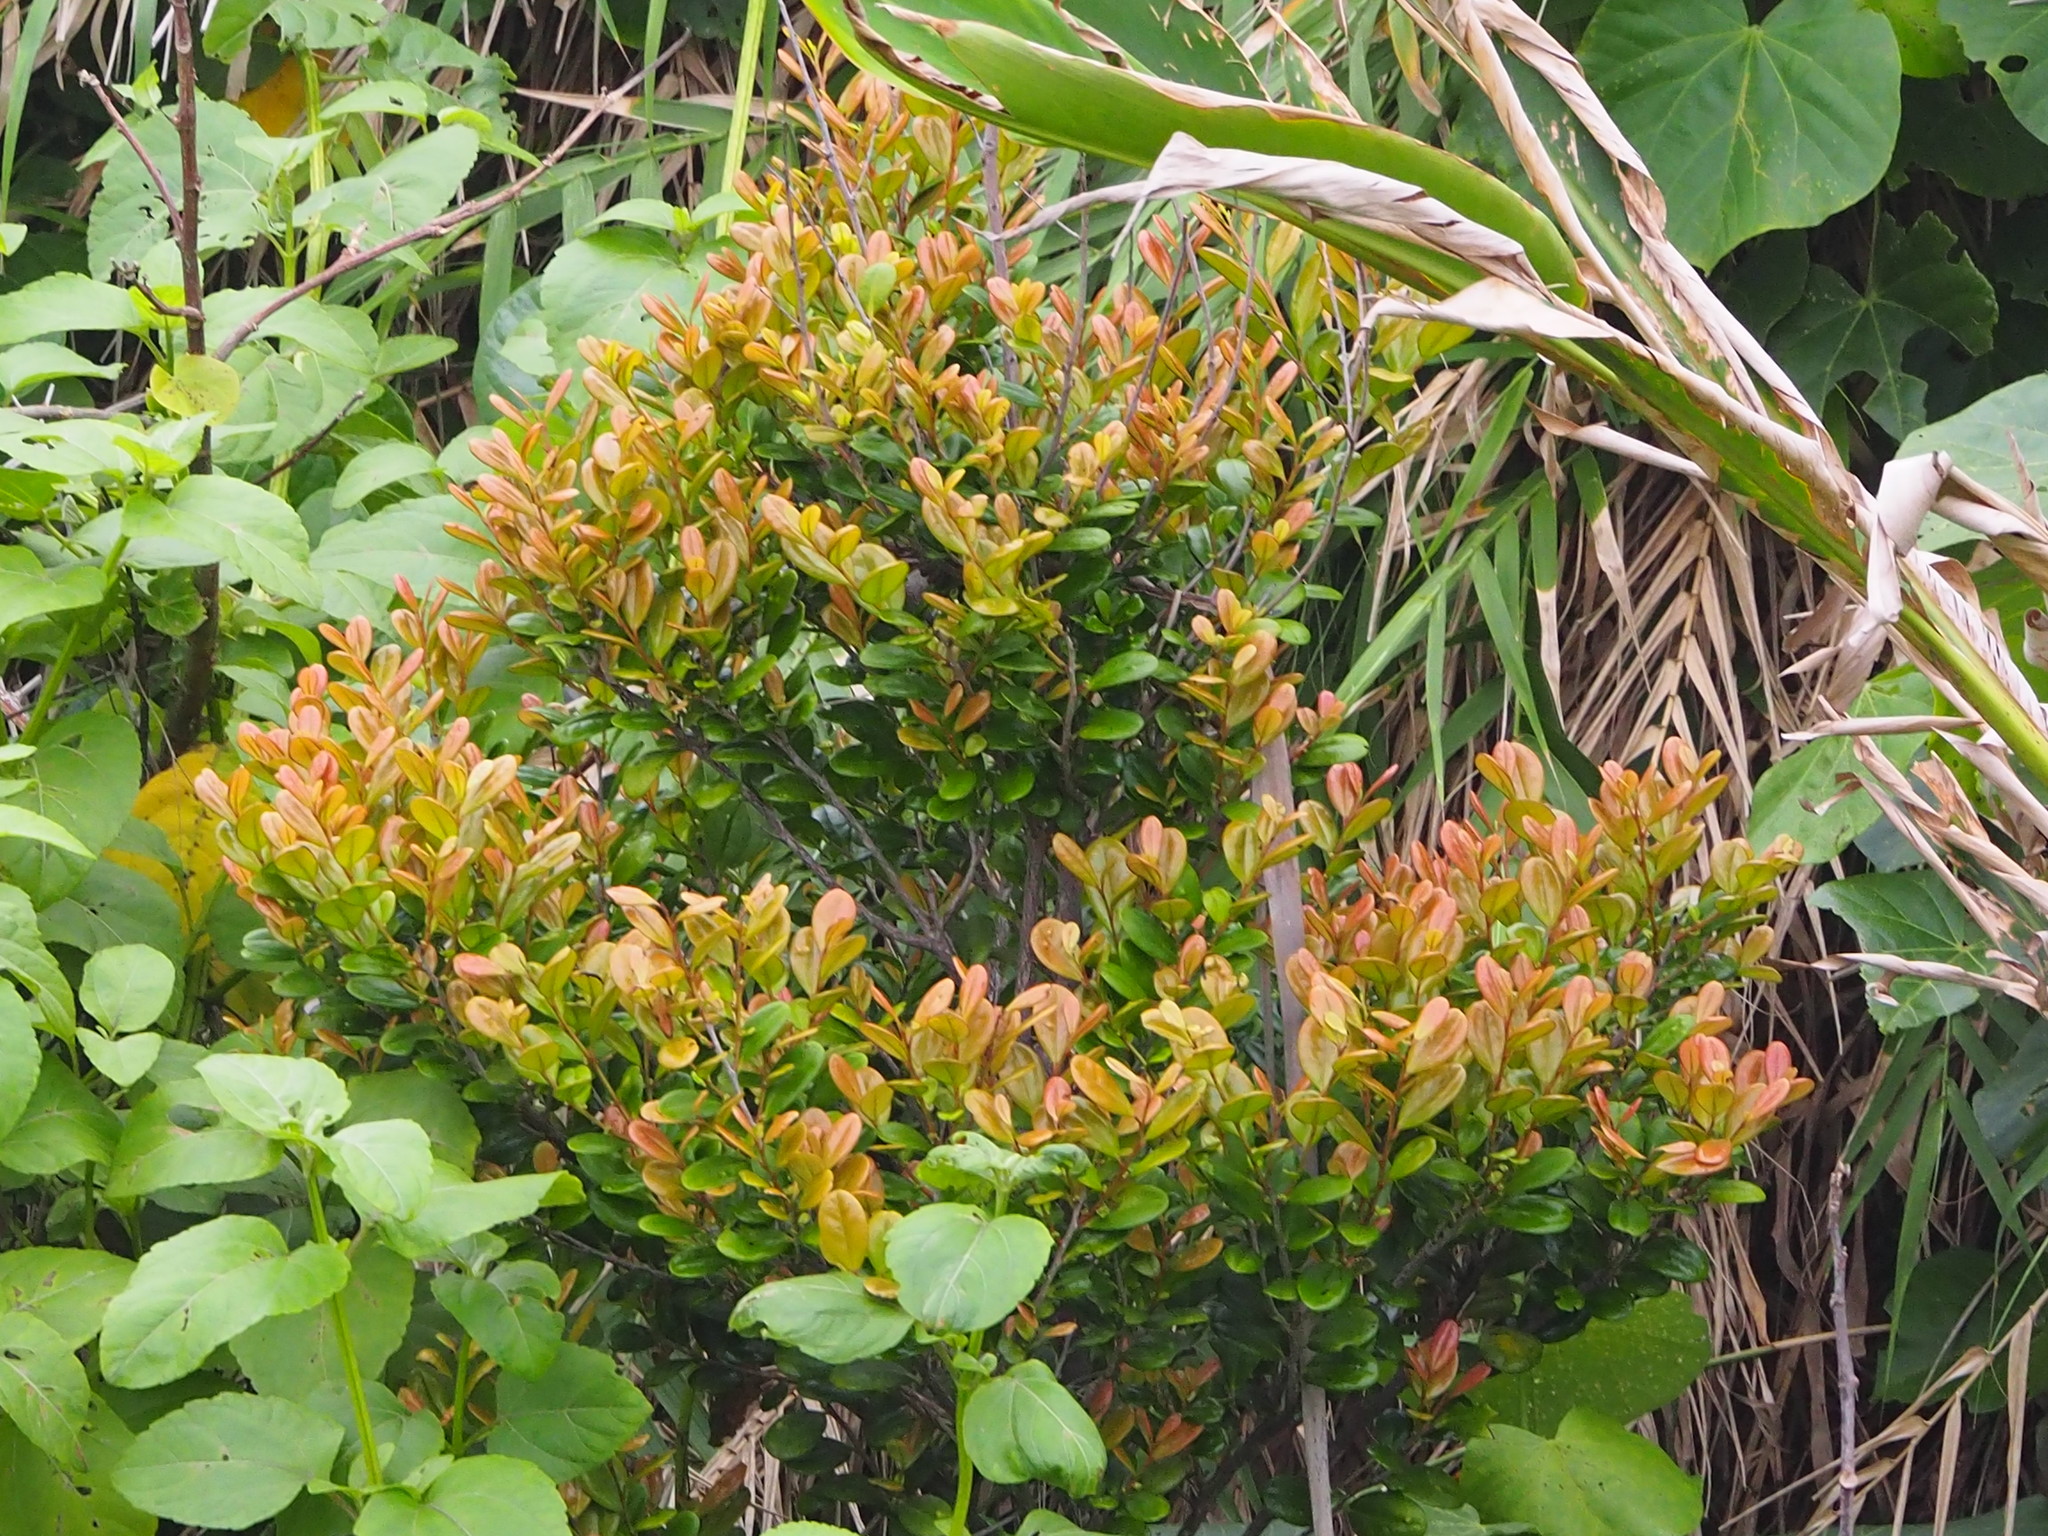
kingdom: Plantae
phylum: Tracheophyta
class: Magnoliopsida
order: Ericales
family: Ebenaceae
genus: Diospyros
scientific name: Diospyros ferrea
